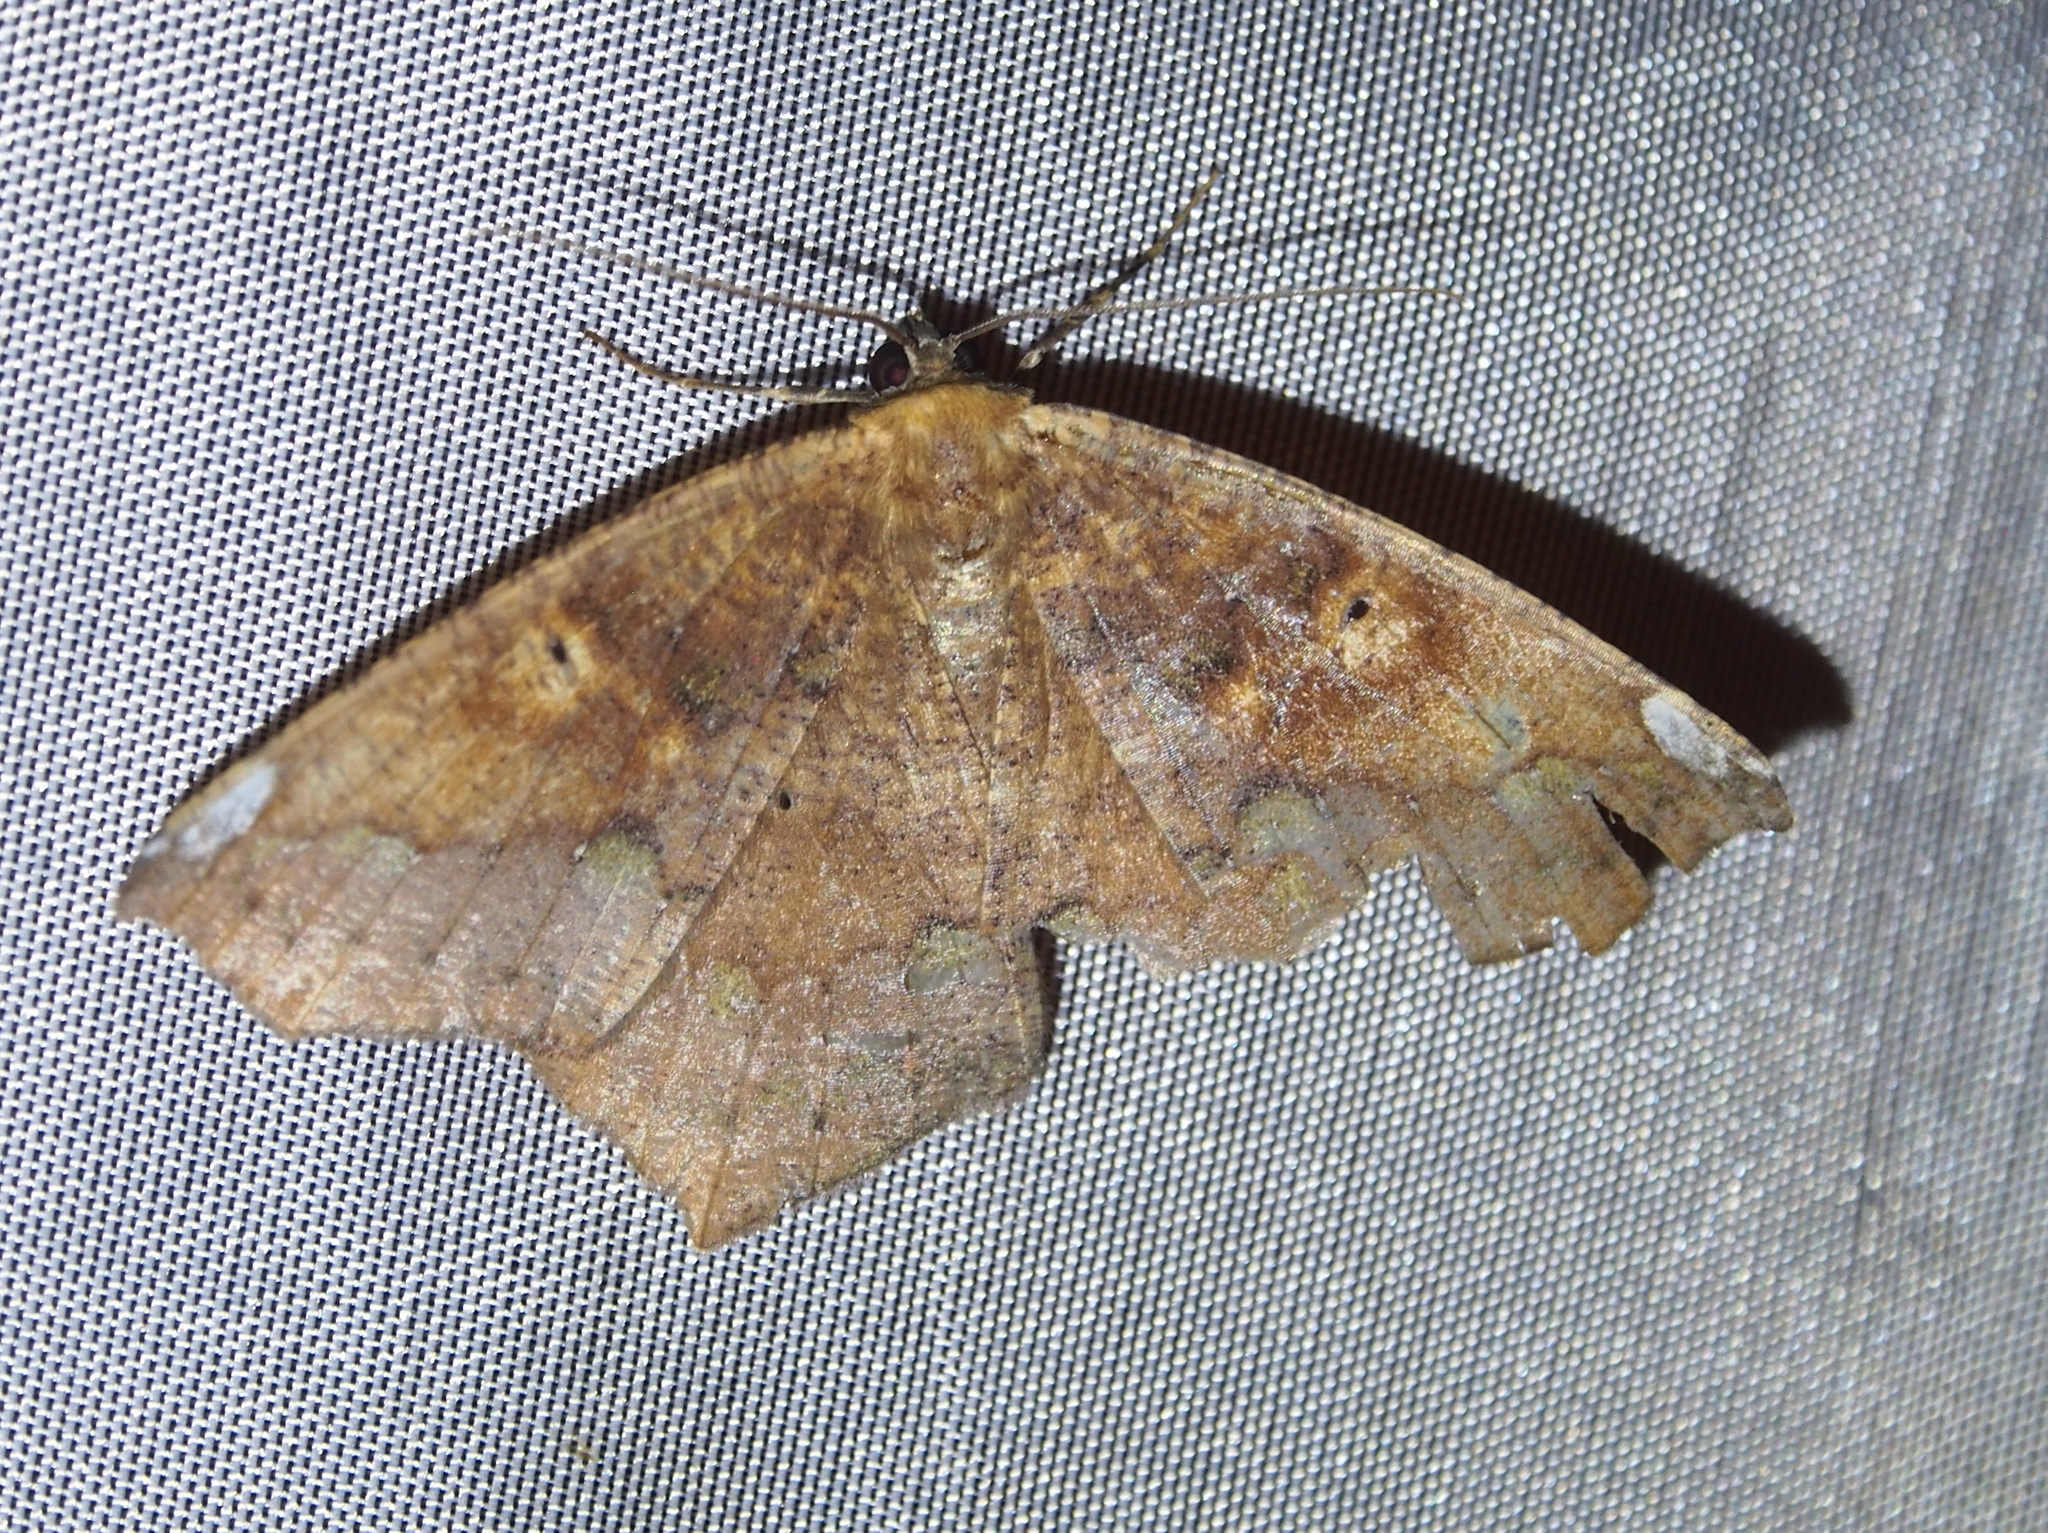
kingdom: Animalia
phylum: Arthropoda
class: Insecta
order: Lepidoptera
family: Geometridae
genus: Paragonia
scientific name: Paragonia cruraria
